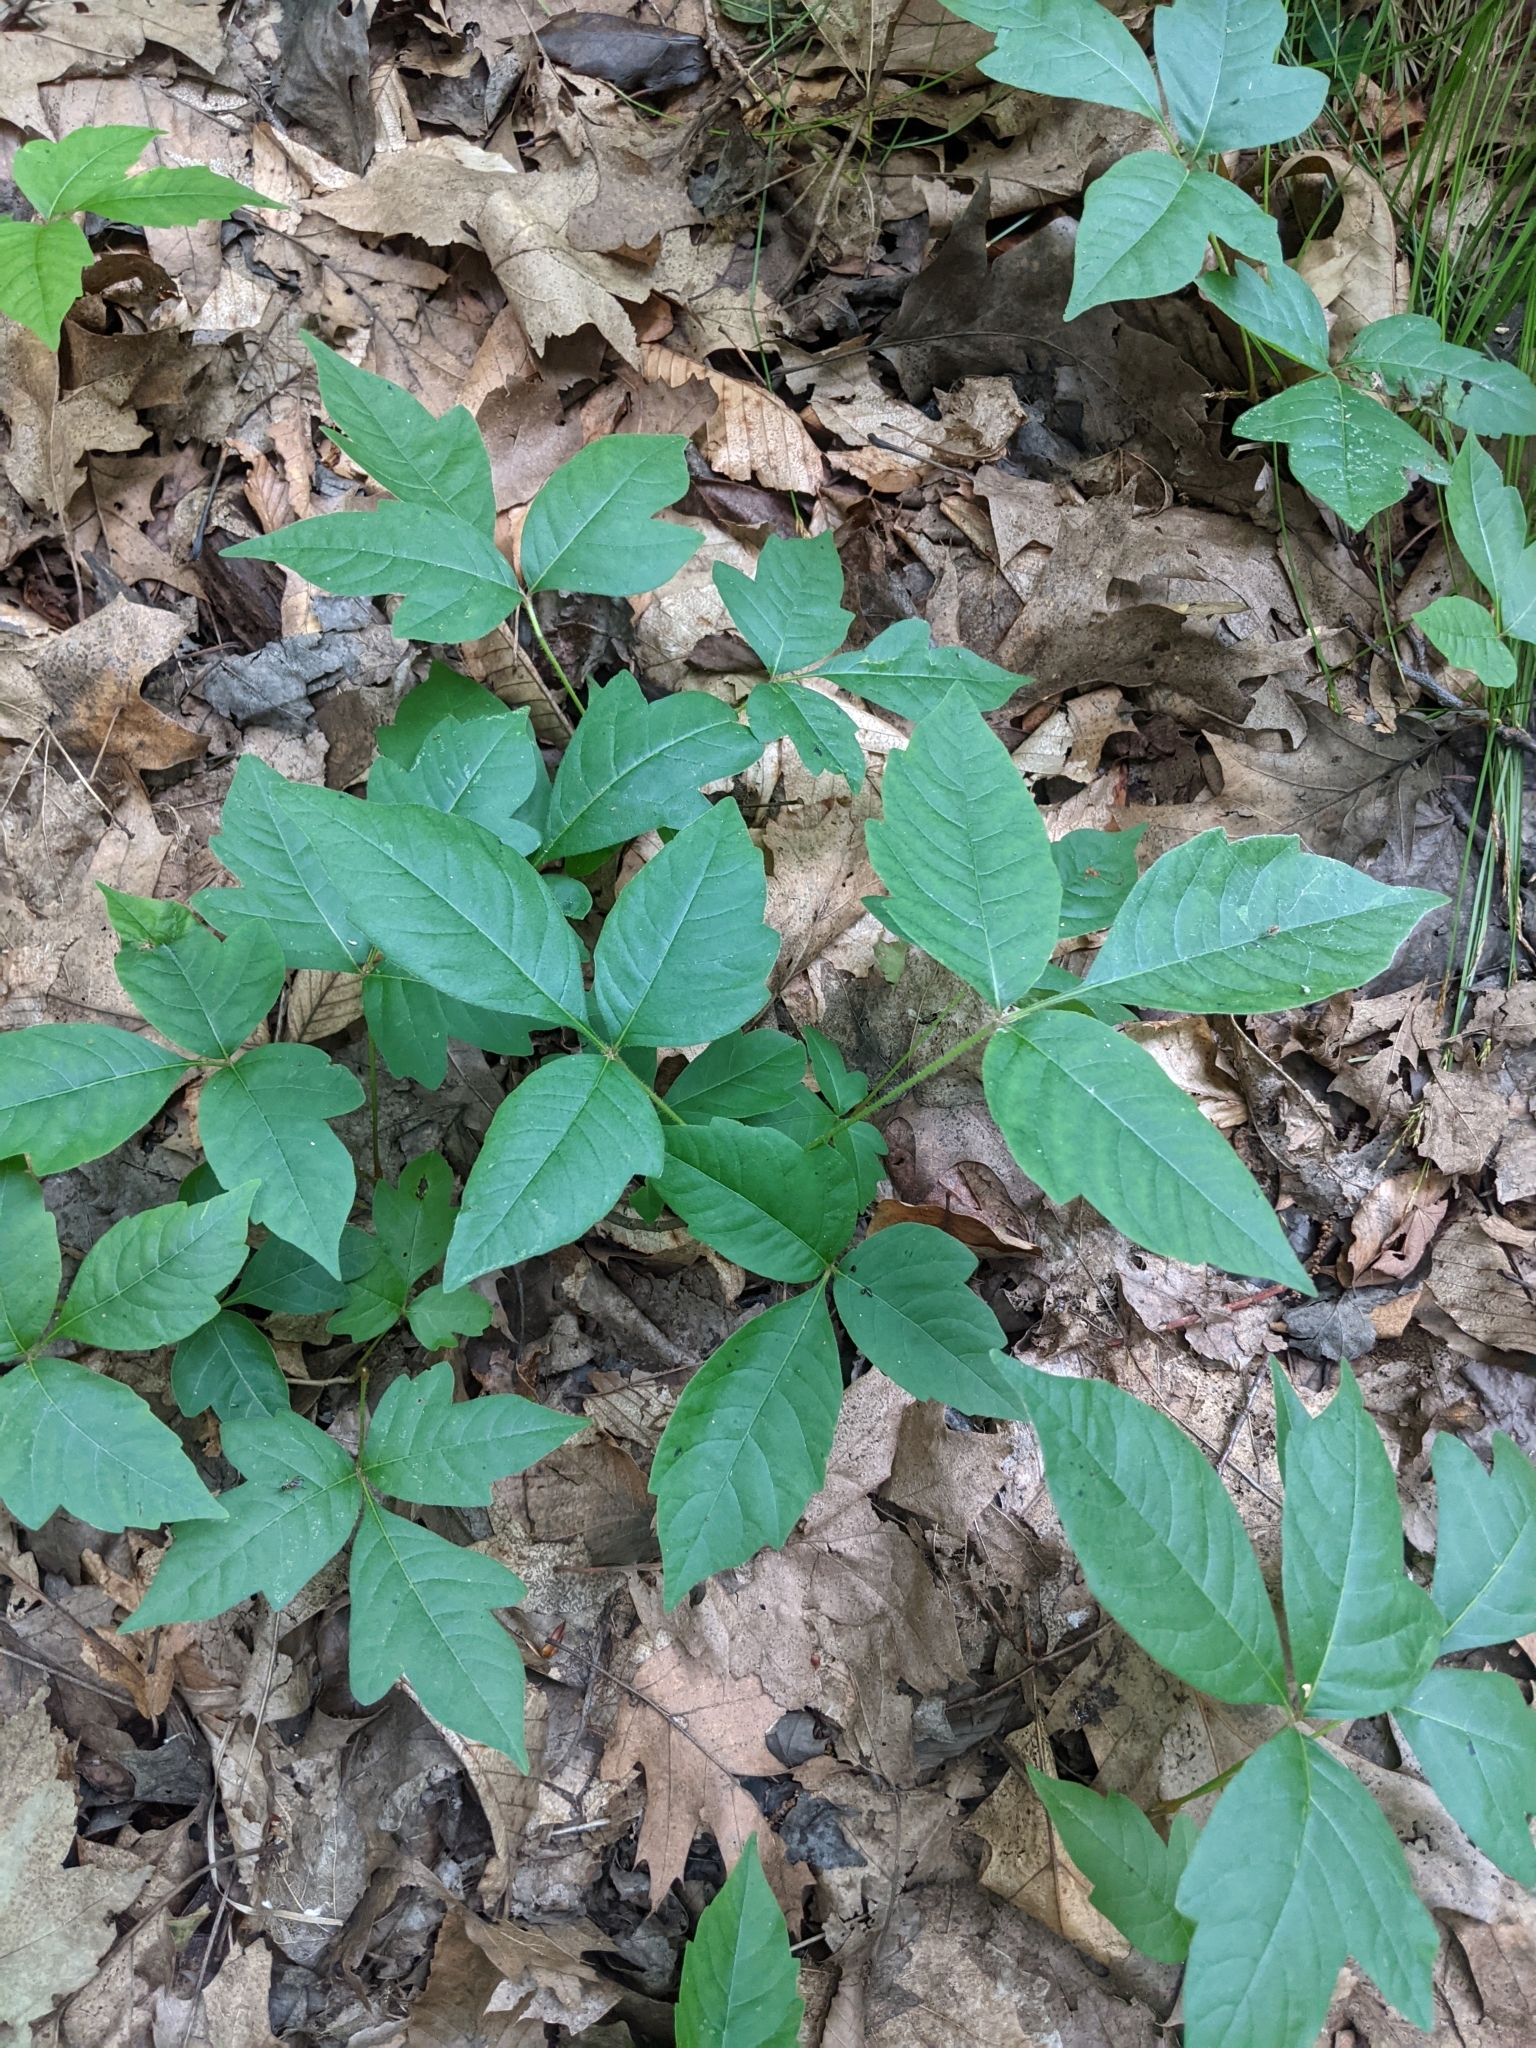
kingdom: Plantae
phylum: Tracheophyta
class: Magnoliopsida
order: Sapindales
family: Anacardiaceae
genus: Toxicodendron
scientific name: Toxicodendron radicans
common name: Poison ivy
